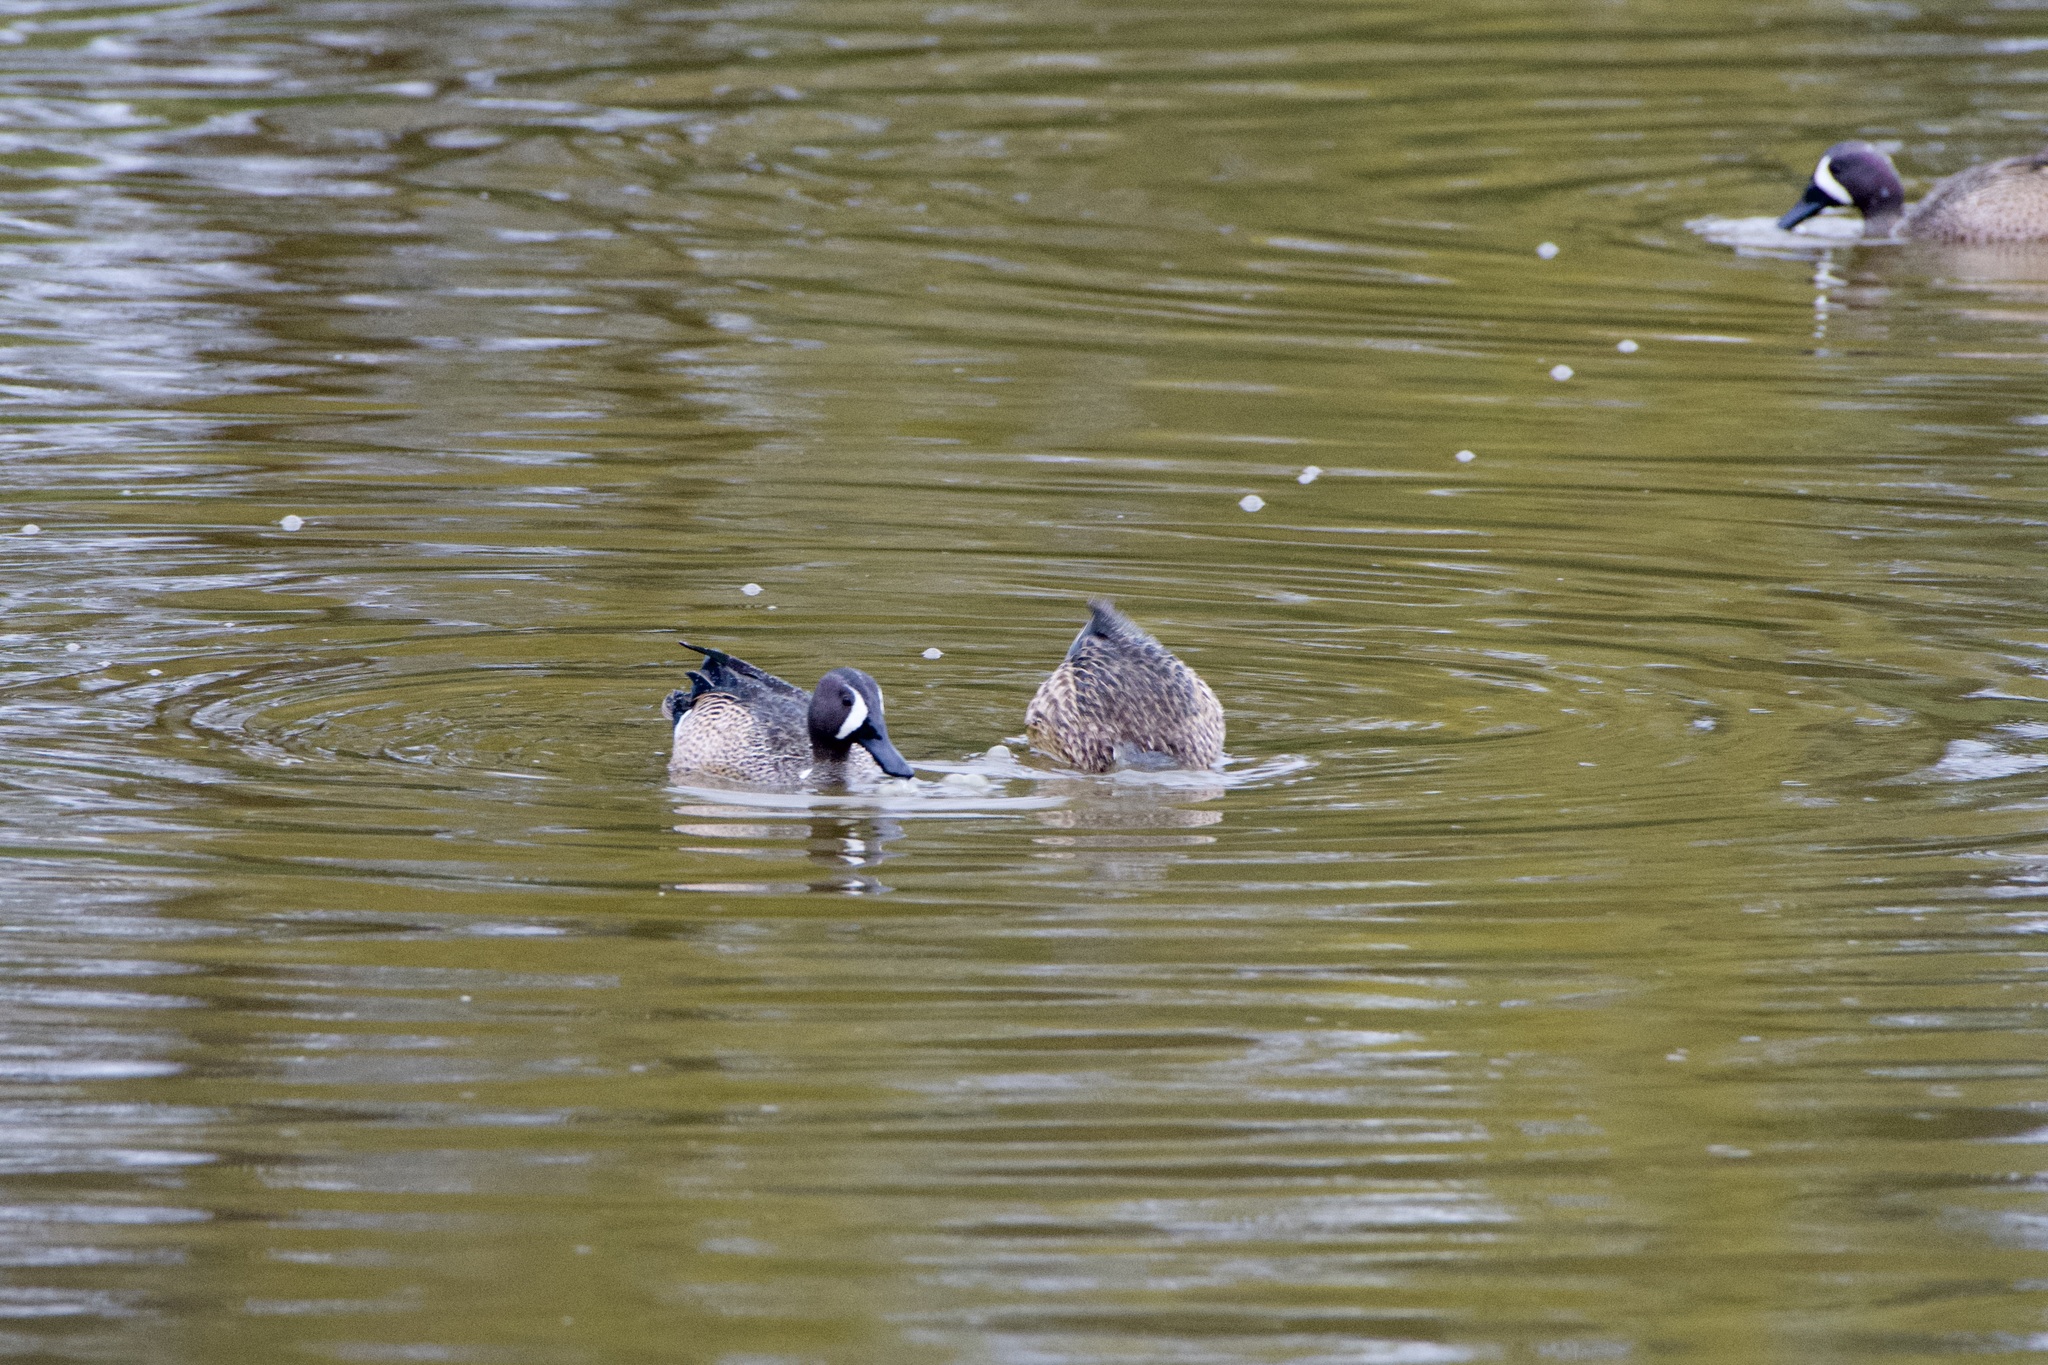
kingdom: Animalia
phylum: Chordata
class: Aves
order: Anseriformes
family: Anatidae
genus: Spatula
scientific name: Spatula discors
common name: Blue-winged teal
